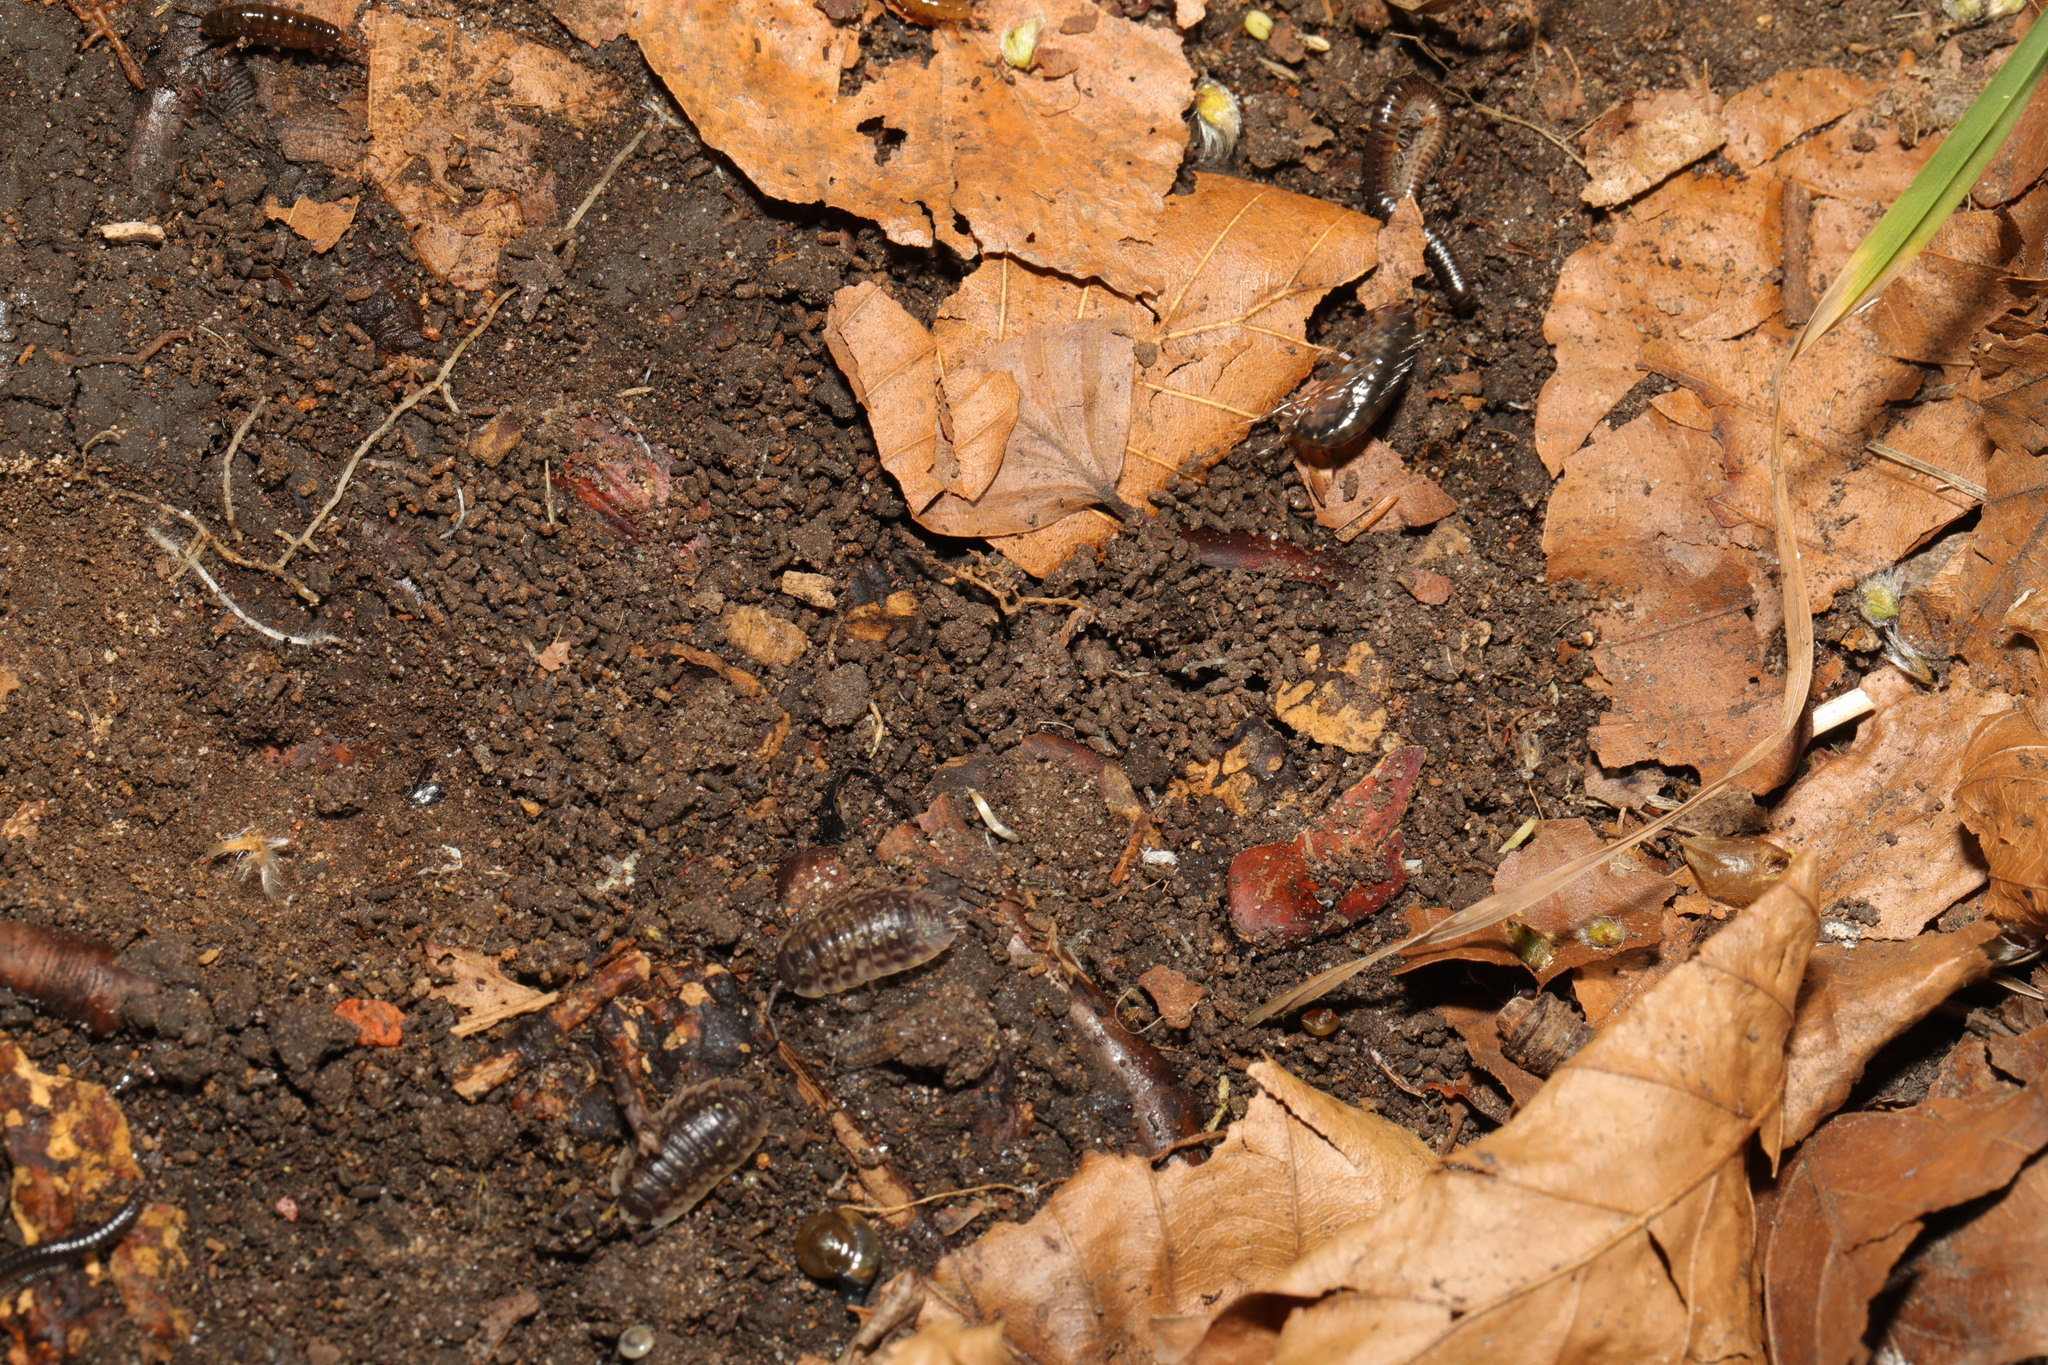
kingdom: Animalia
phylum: Arthropoda
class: Malacostraca
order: Amphipoda
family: Arcitalitridae
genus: Arcitalitrus
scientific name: Arcitalitrus dorrieni
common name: Landhopper
